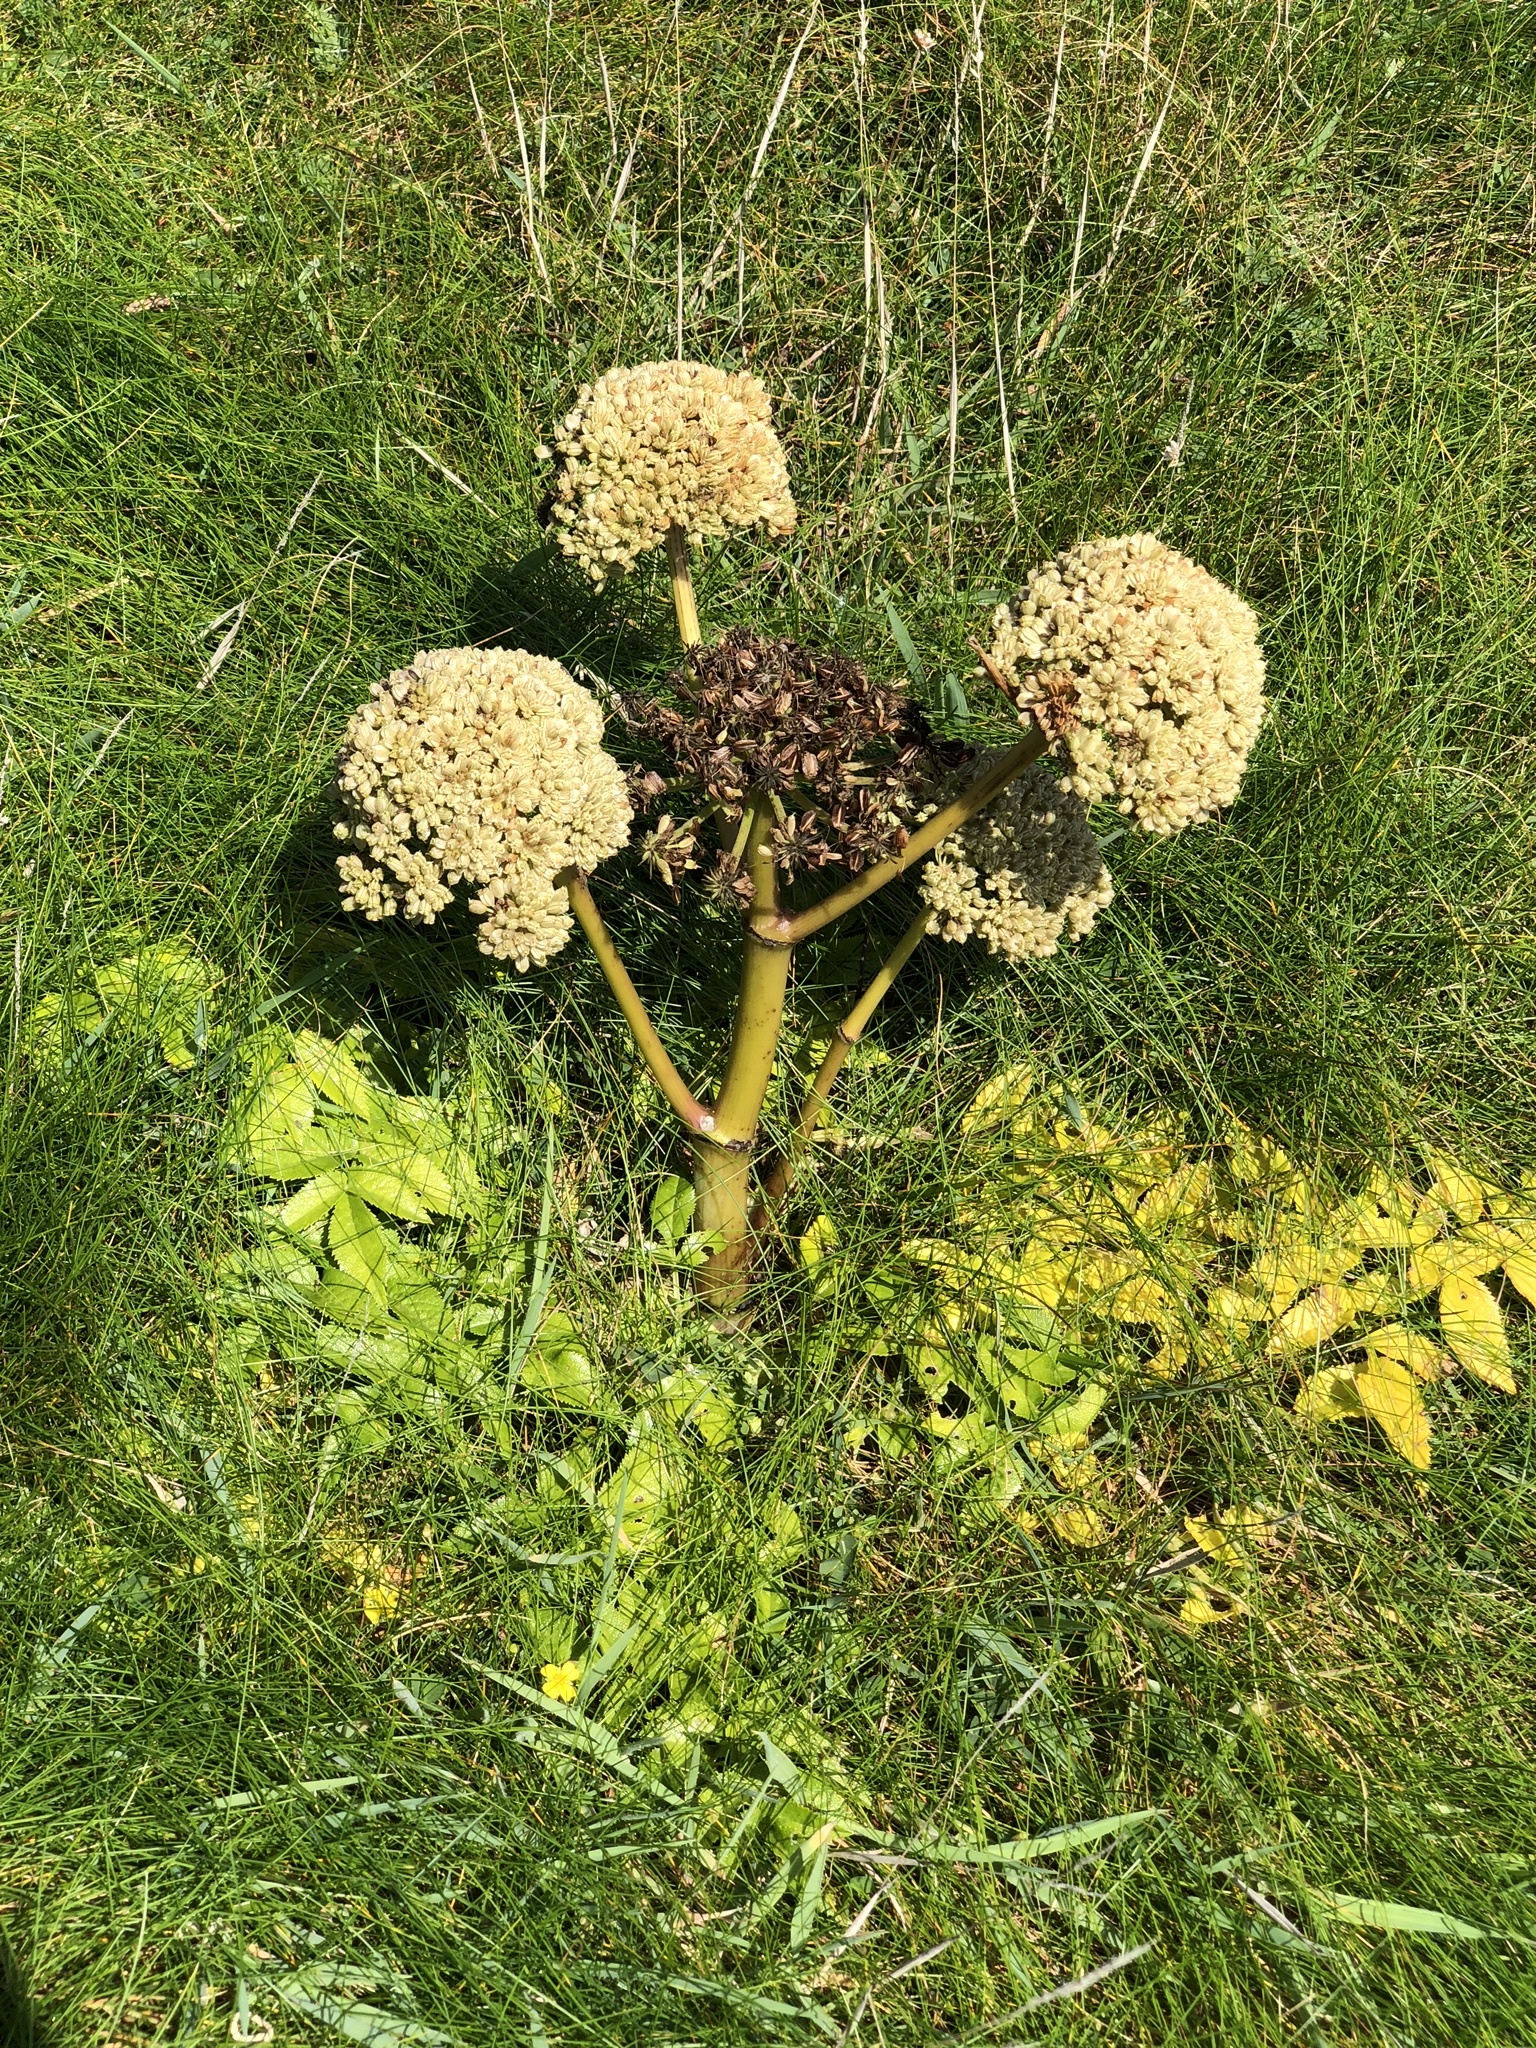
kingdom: Plantae
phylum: Tracheophyta
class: Magnoliopsida
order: Apiales
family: Apiaceae
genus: Angelica
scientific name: Angelica sylvestris
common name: Wild angelica
